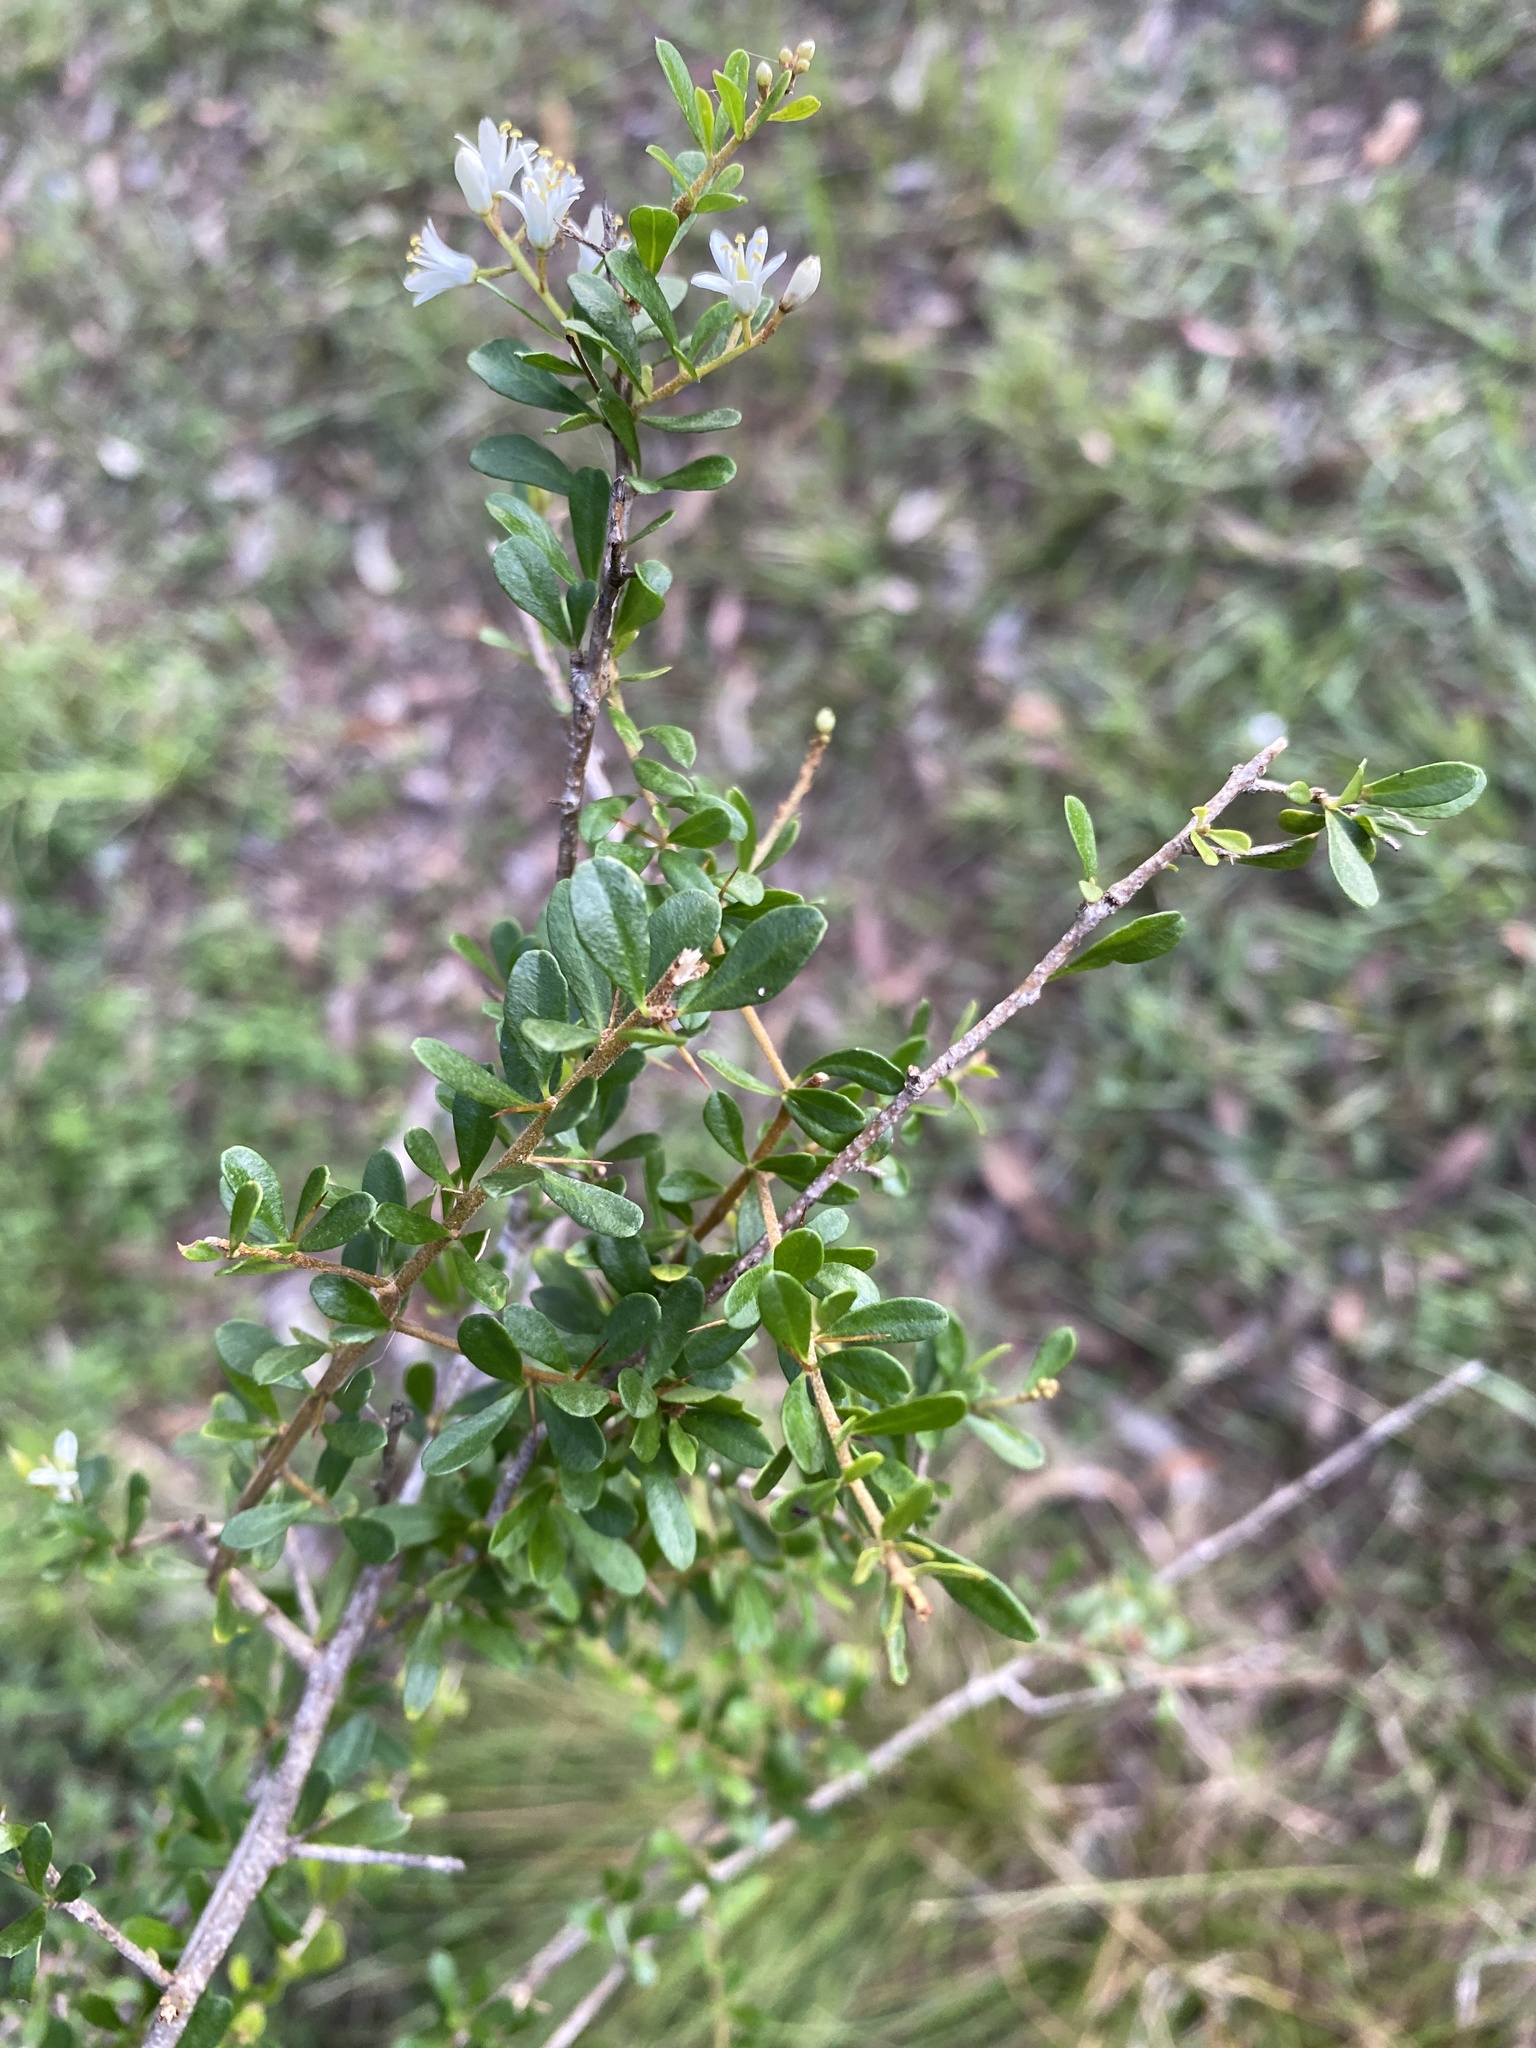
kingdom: Plantae
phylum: Tracheophyta
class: Magnoliopsida
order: Apiales
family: Pittosporaceae
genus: Bursaria
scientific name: Bursaria spinosa
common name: Australian blackthorn
